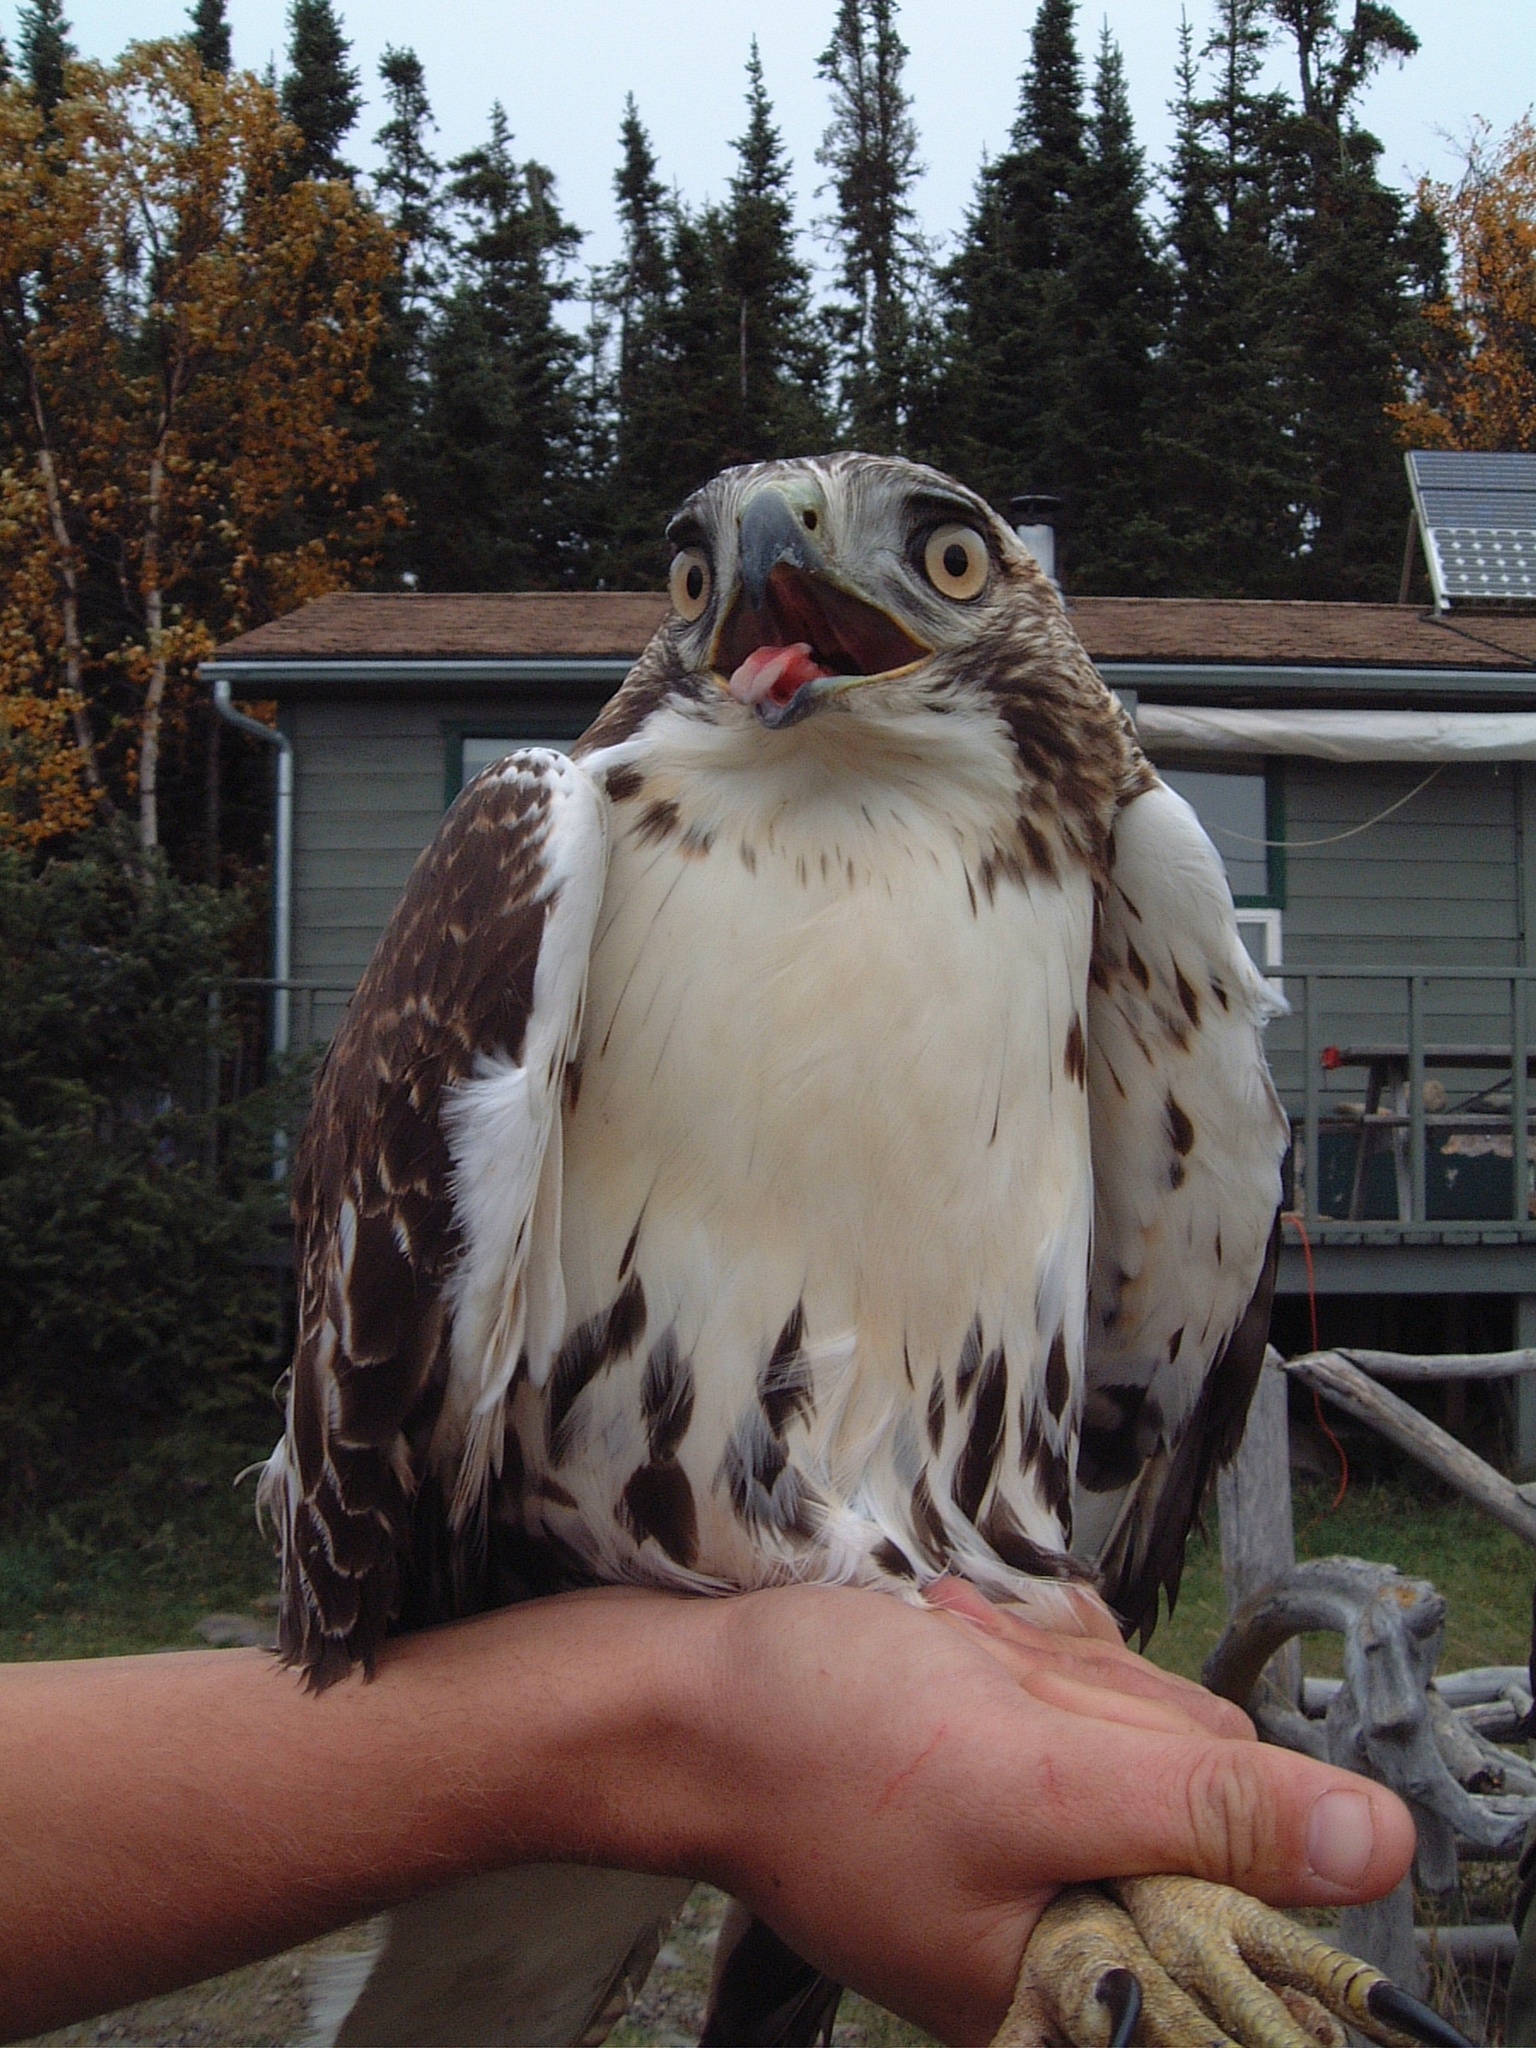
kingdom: Animalia
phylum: Chordata
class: Aves
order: Accipitriformes
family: Accipitridae
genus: Buteo
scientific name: Buteo jamaicensis
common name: Red-tailed hawk
